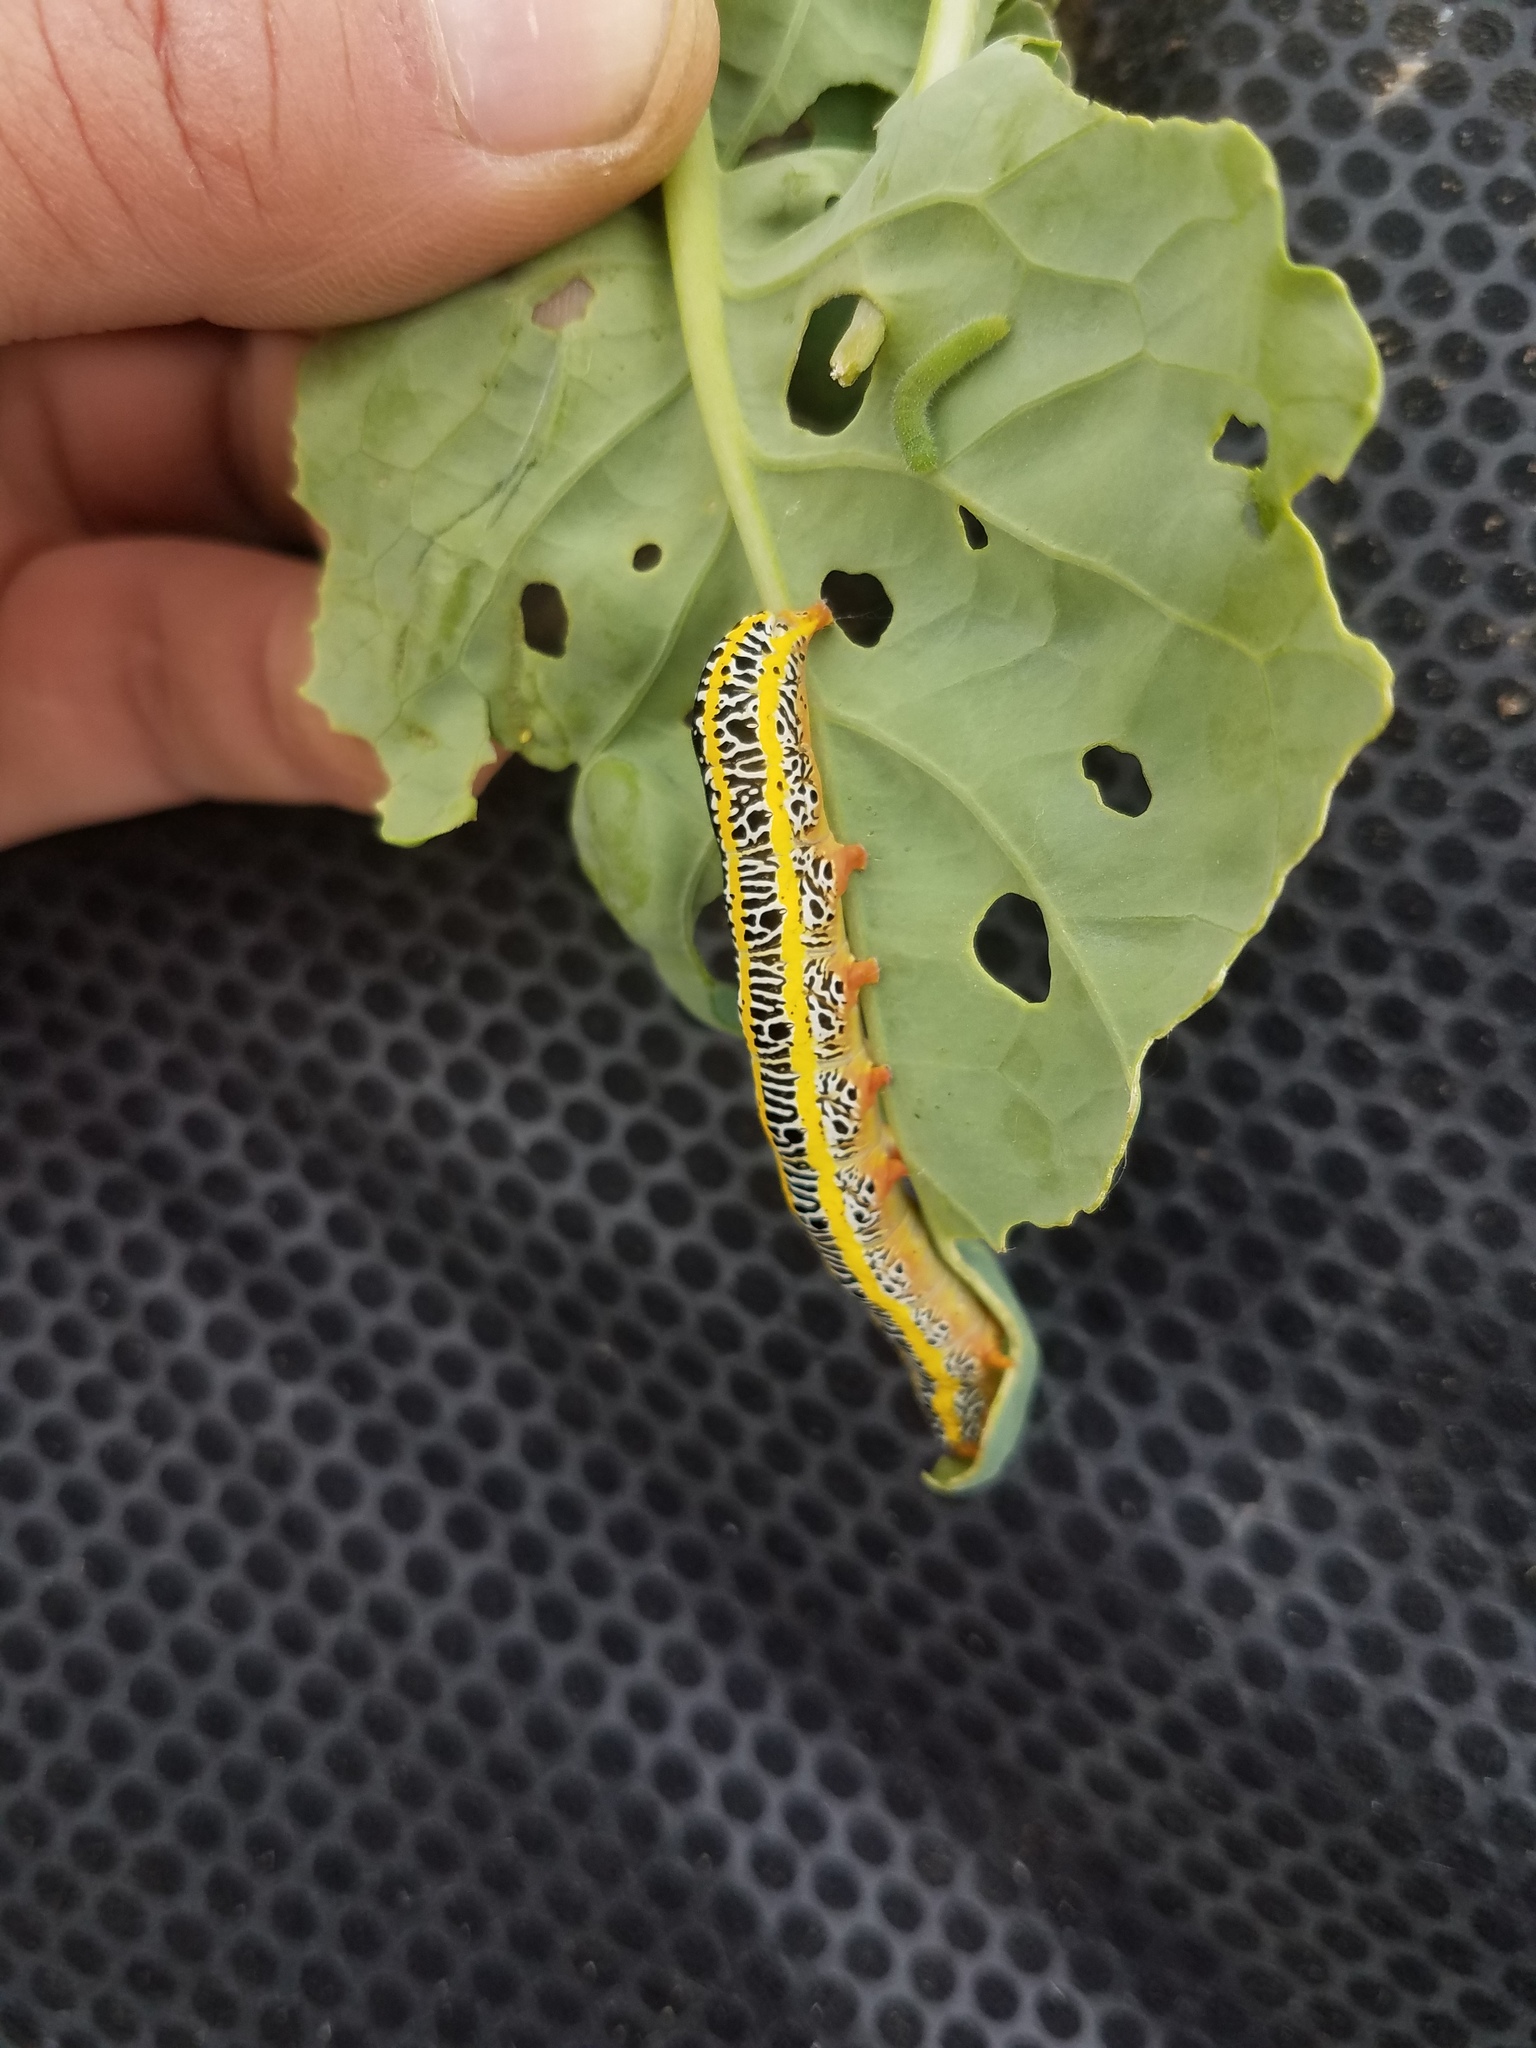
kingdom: Animalia
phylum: Arthropoda
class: Insecta
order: Lepidoptera
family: Noctuidae
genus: Melanchra
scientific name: Melanchra picta
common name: Zebra caterpillar
